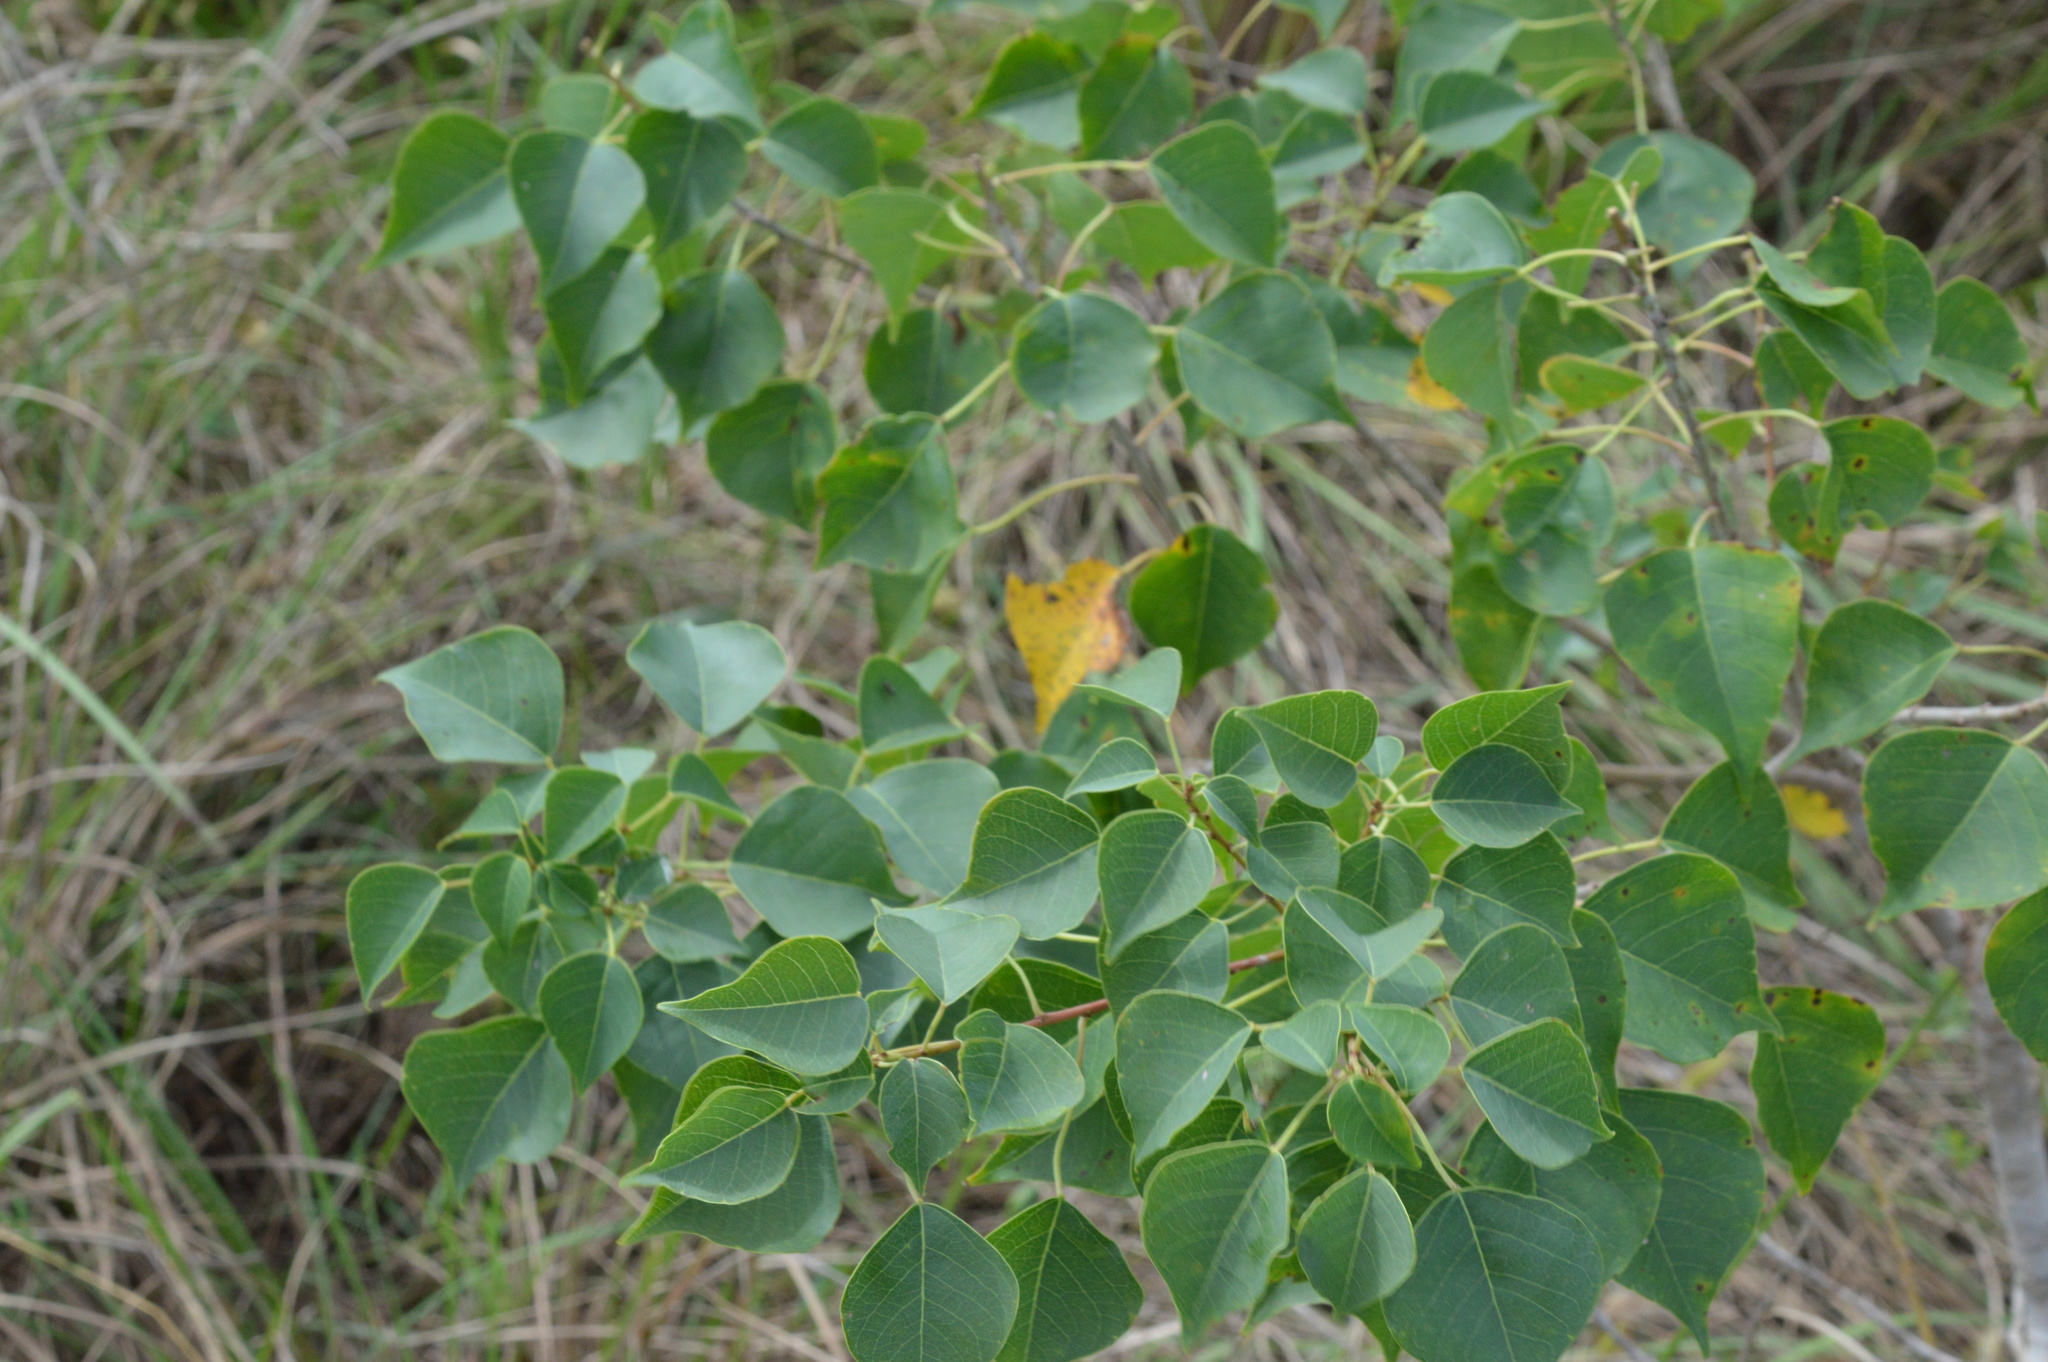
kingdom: Plantae
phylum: Tracheophyta
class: Magnoliopsida
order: Malpighiales
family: Euphorbiaceae
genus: Triadica
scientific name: Triadica sebifera
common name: Chinese tallow
